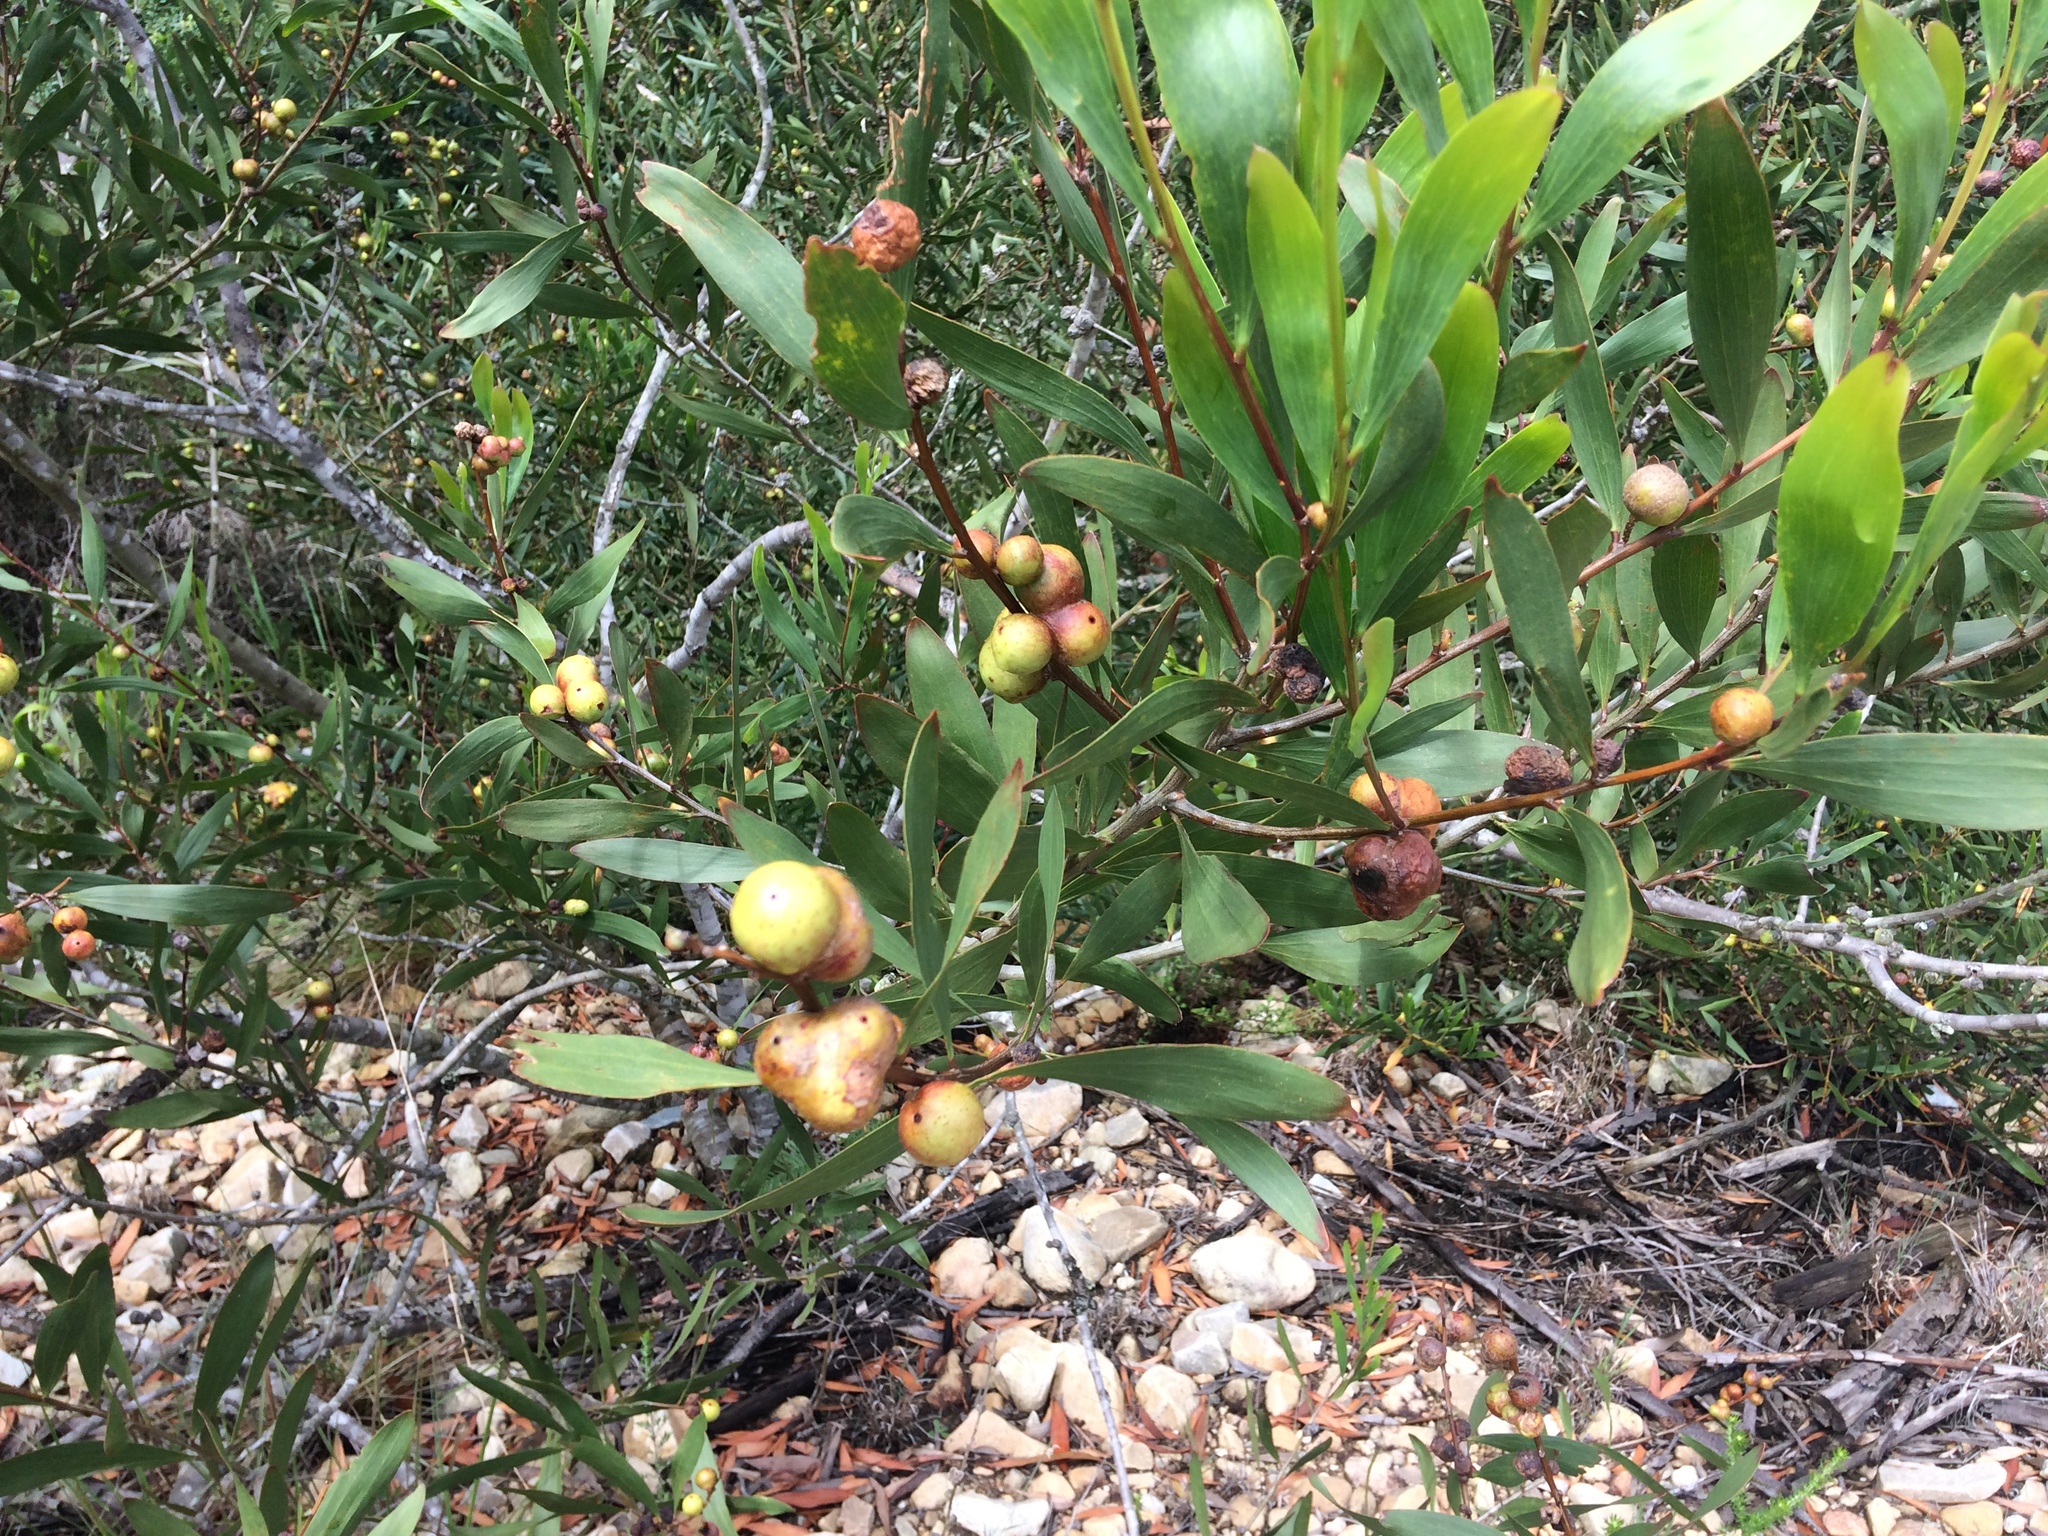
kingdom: Plantae
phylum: Tracheophyta
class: Magnoliopsida
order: Fabales
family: Fabaceae
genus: Acacia
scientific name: Acacia longifolia
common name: Sydney golden wattle
